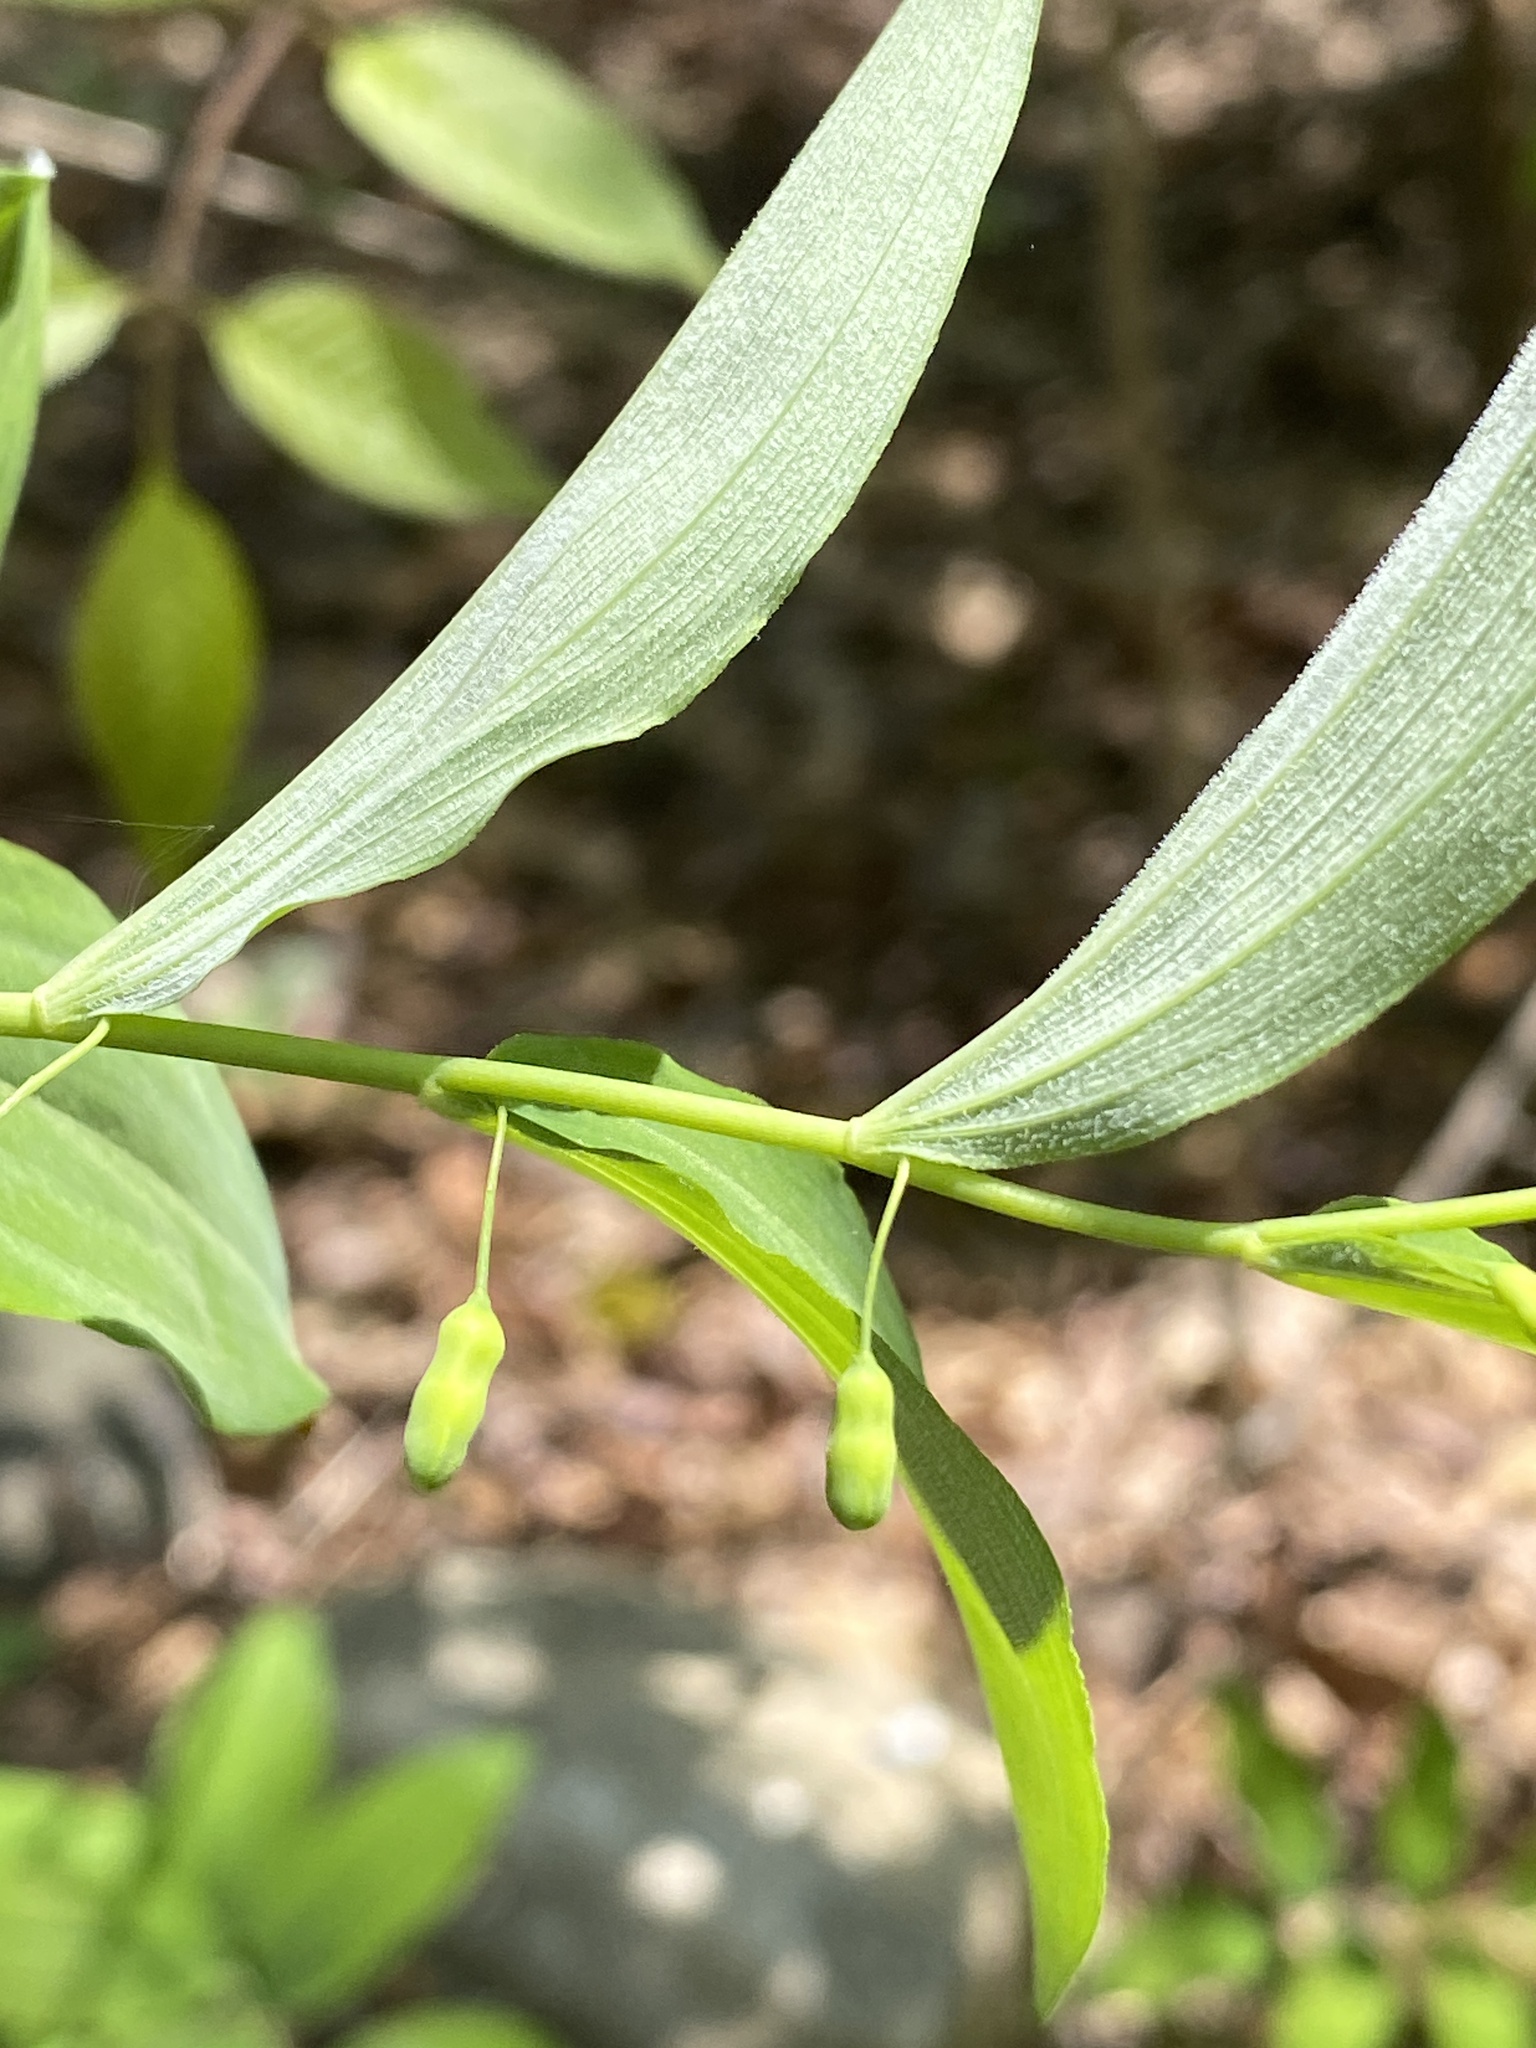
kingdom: Plantae
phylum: Tracheophyta
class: Liliopsida
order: Asparagales
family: Asparagaceae
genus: Polygonatum
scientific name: Polygonatum pubescens
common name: Downy solomon's seal
